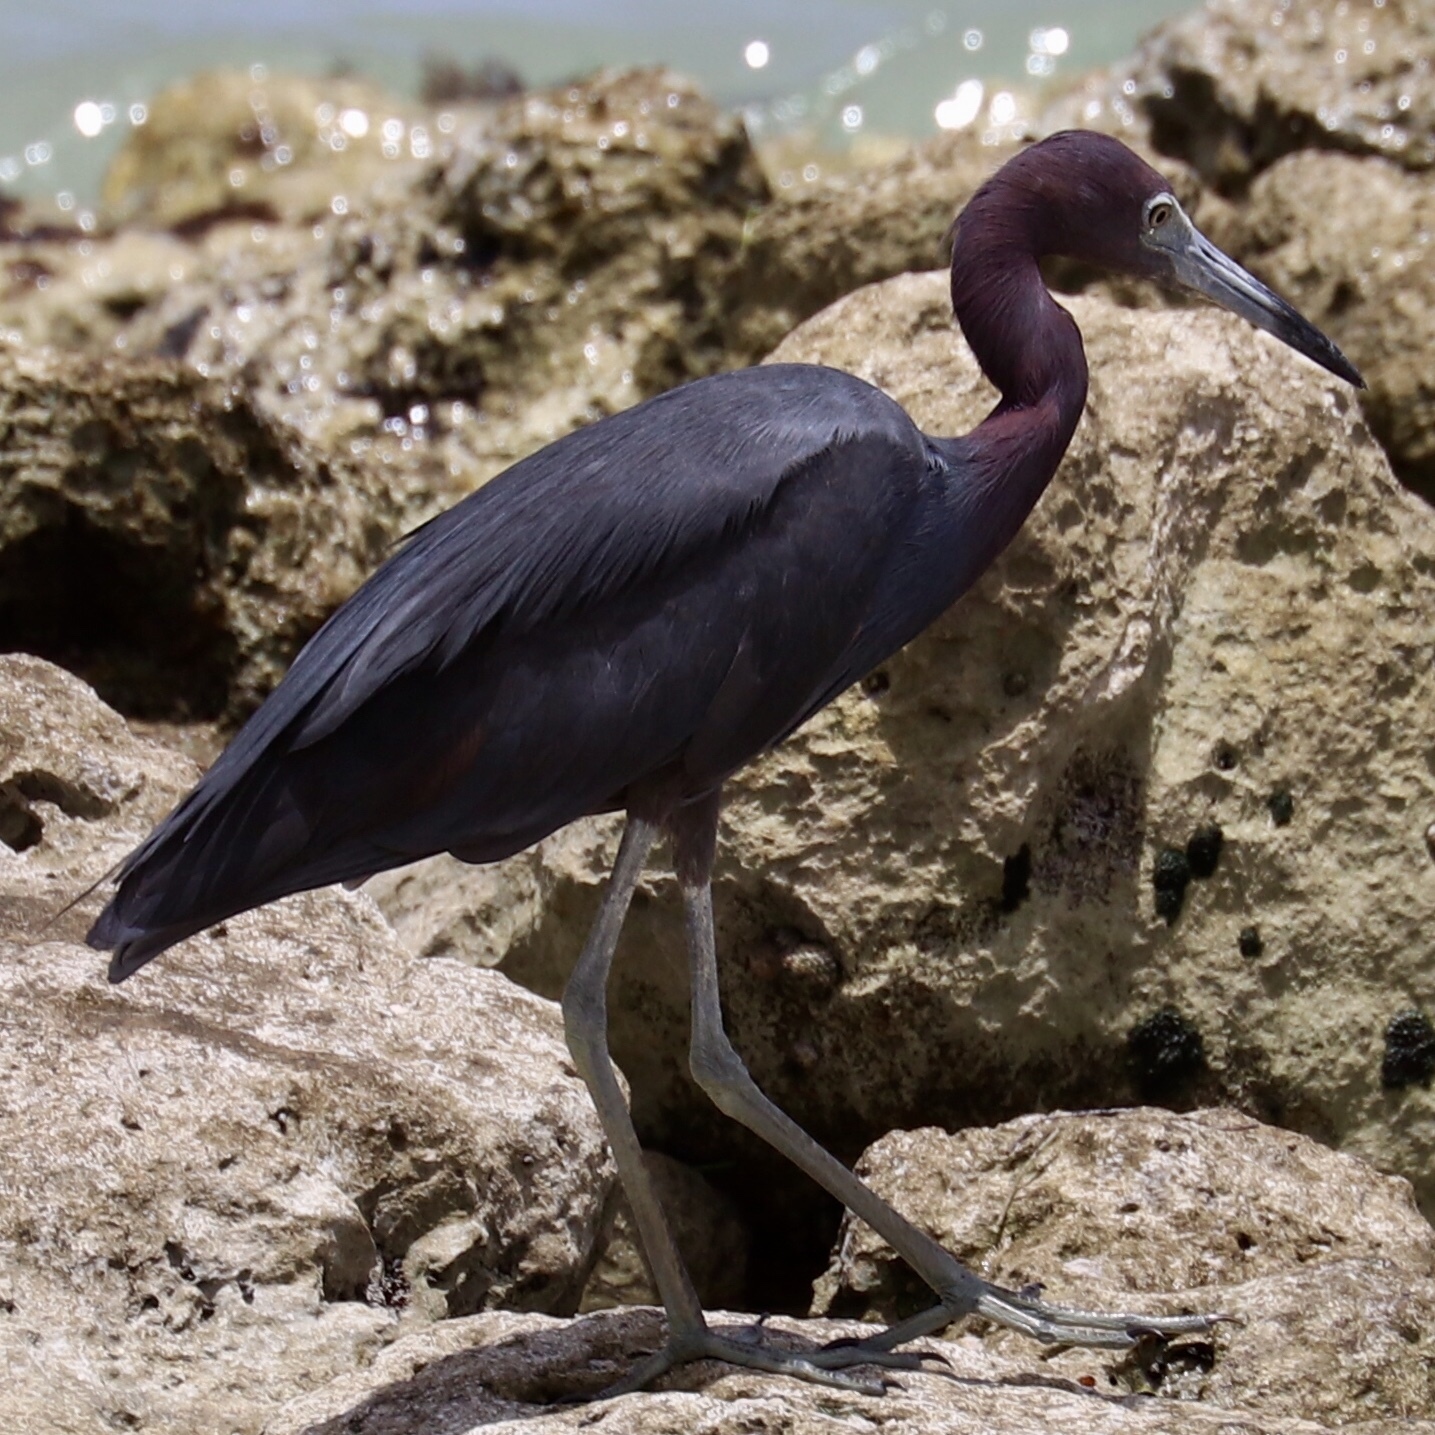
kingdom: Animalia
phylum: Chordata
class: Aves
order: Pelecaniformes
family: Ardeidae
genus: Egretta
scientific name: Egretta caerulea
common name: Little blue heron
